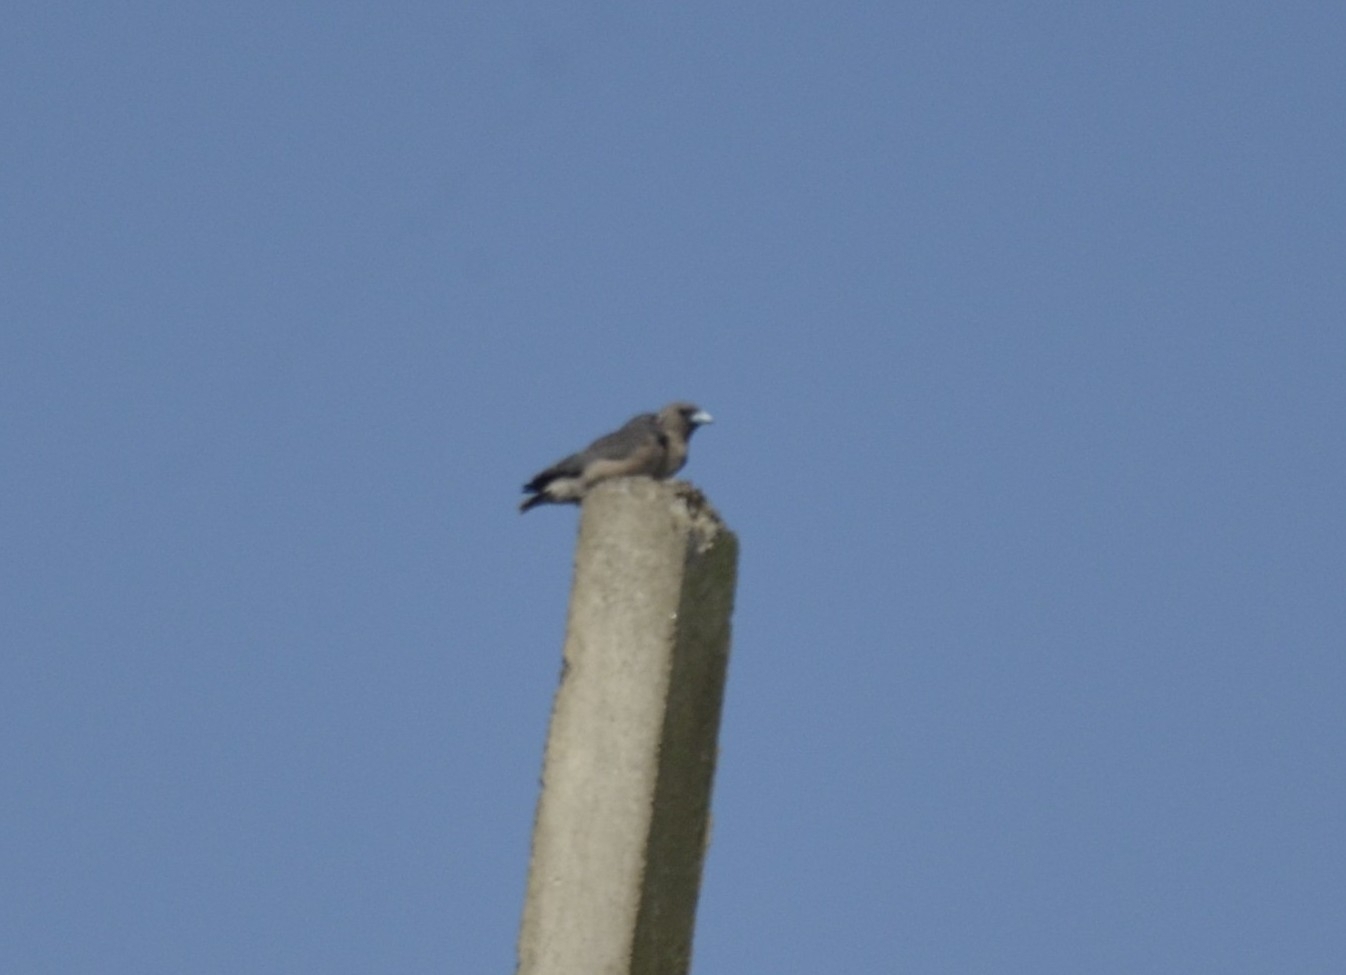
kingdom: Animalia
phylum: Chordata
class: Aves
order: Passeriformes
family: Artamidae
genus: Artamus
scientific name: Artamus fuscus
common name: Ashy woodswallow
